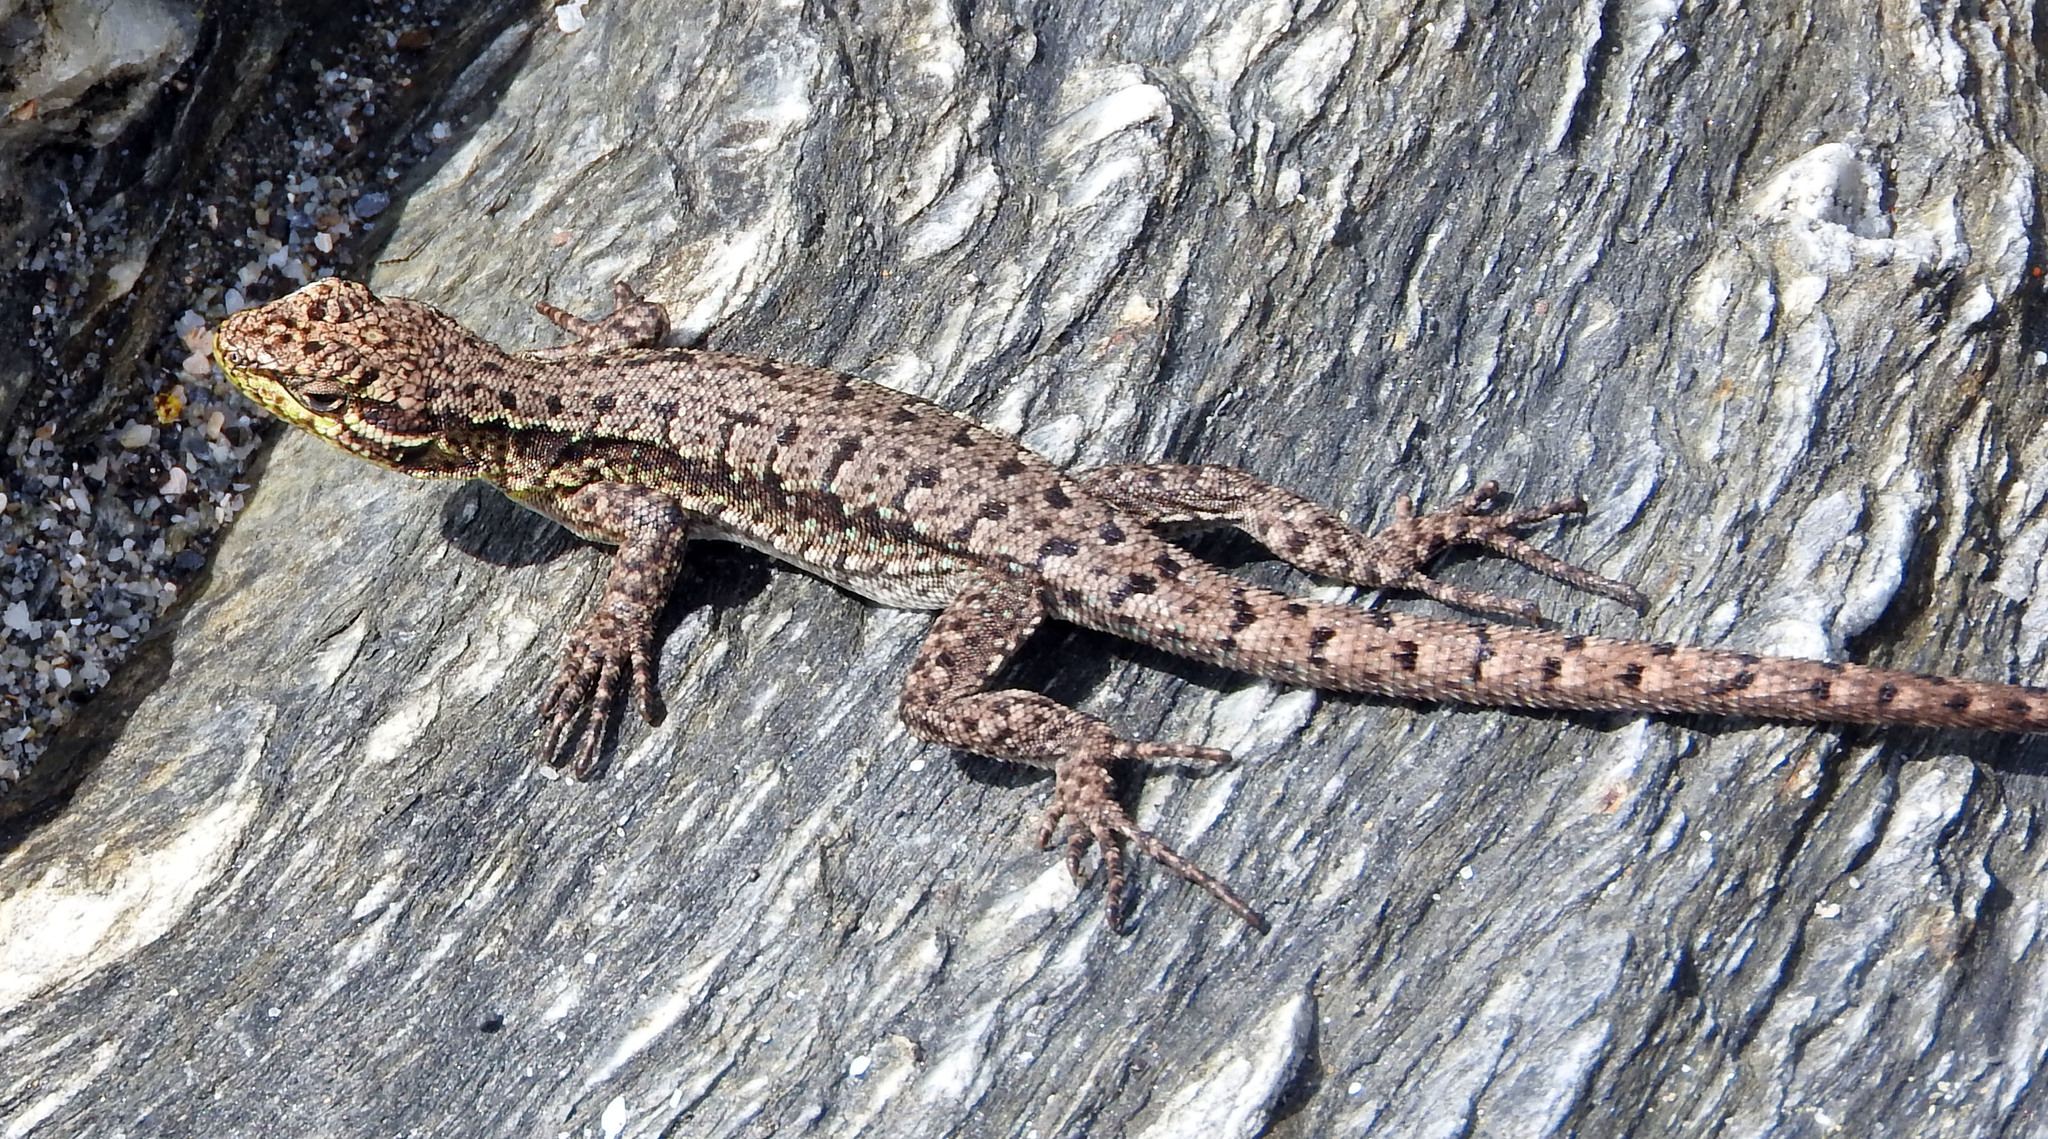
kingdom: Animalia
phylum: Chordata
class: Squamata
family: Liolaemidae
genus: Liolaemus
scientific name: Liolaemus tenuis
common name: Thin tree iguana
